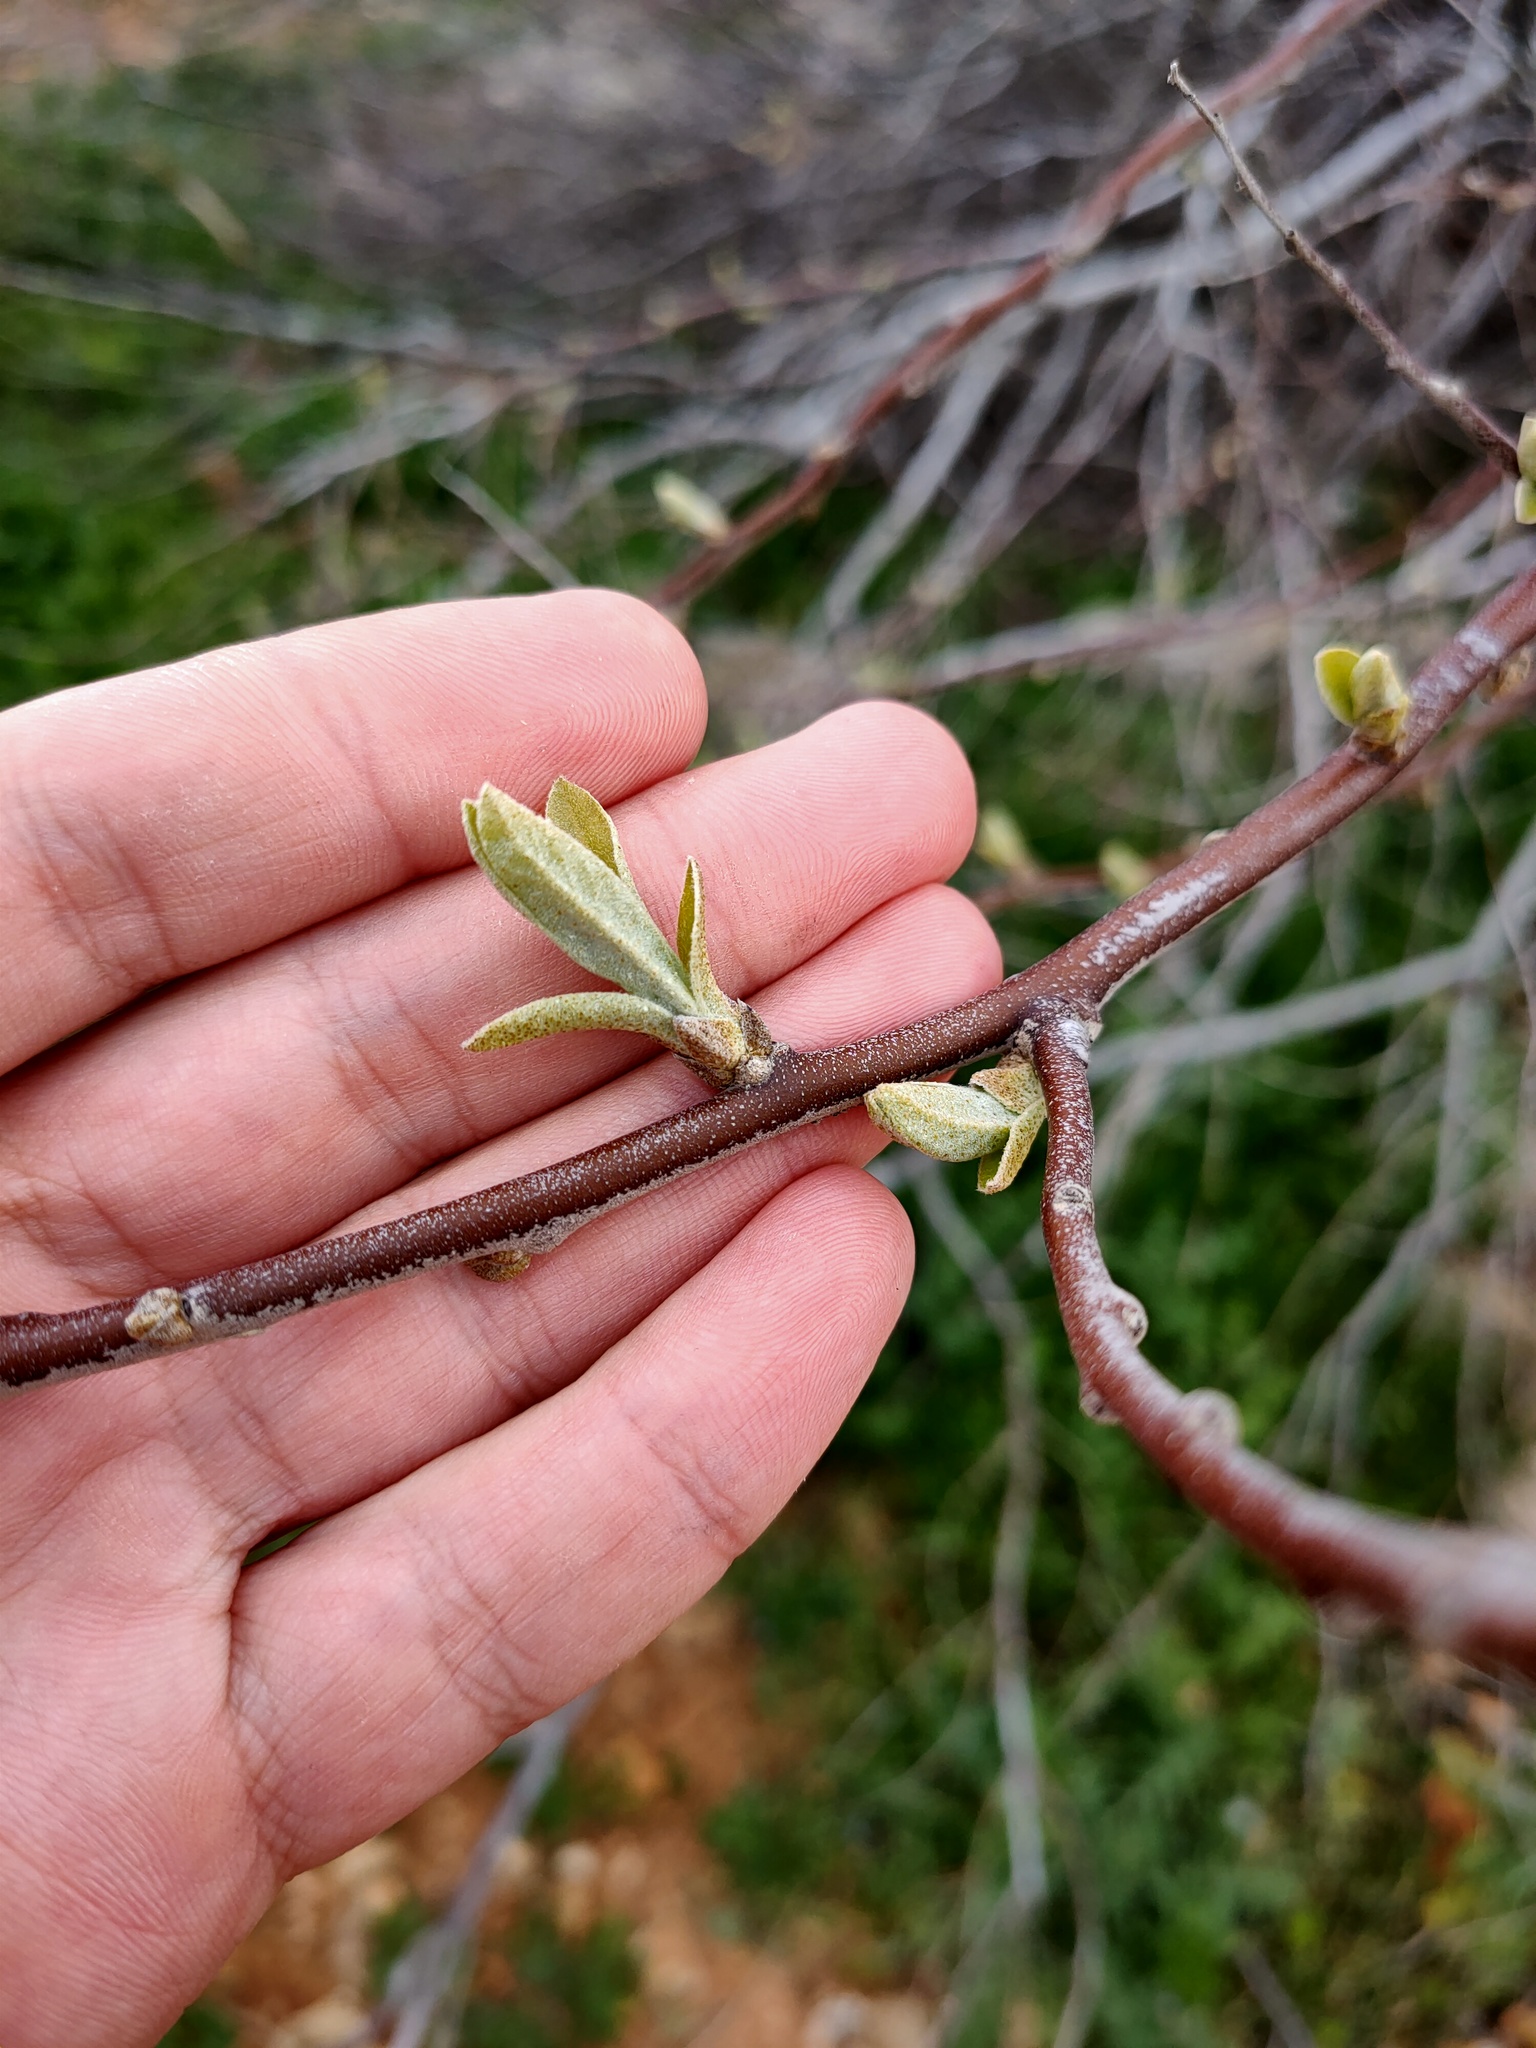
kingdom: Plantae
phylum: Tracheophyta
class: Magnoliopsida
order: Rosales
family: Elaeagnaceae
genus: Elaeagnus
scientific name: Elaeagnus angustifolia
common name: Russian olive
